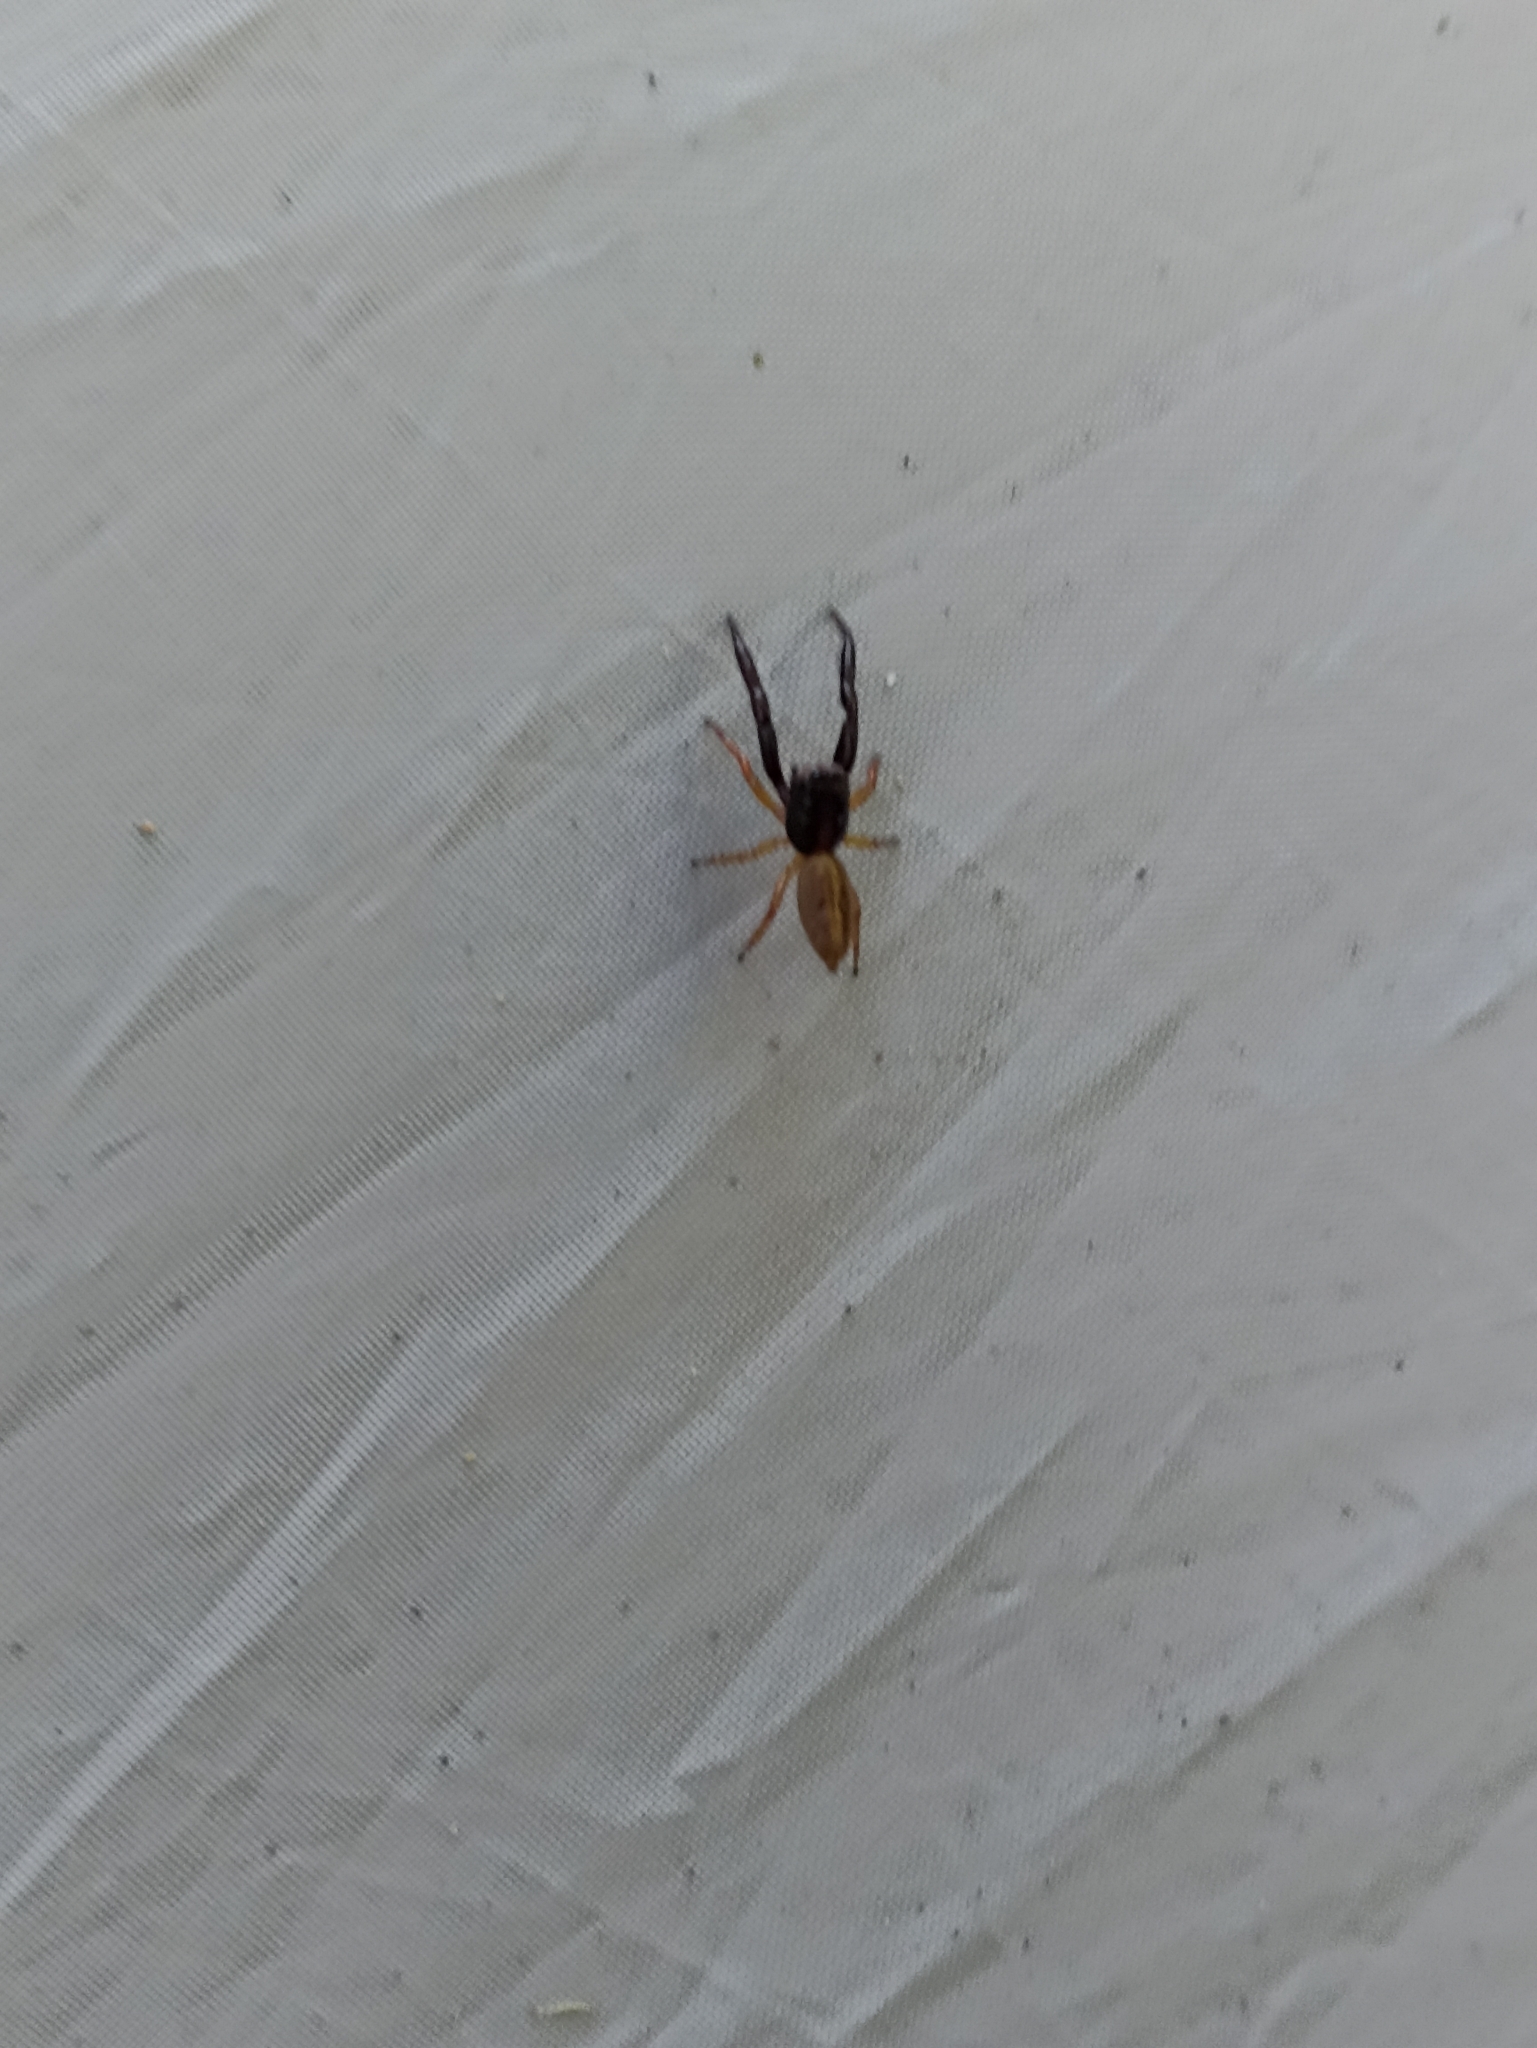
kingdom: Animalia
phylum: Arthropoda
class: Arachnida
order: Araneae
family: Salticidae
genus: Trite
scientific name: Trite planiceps
